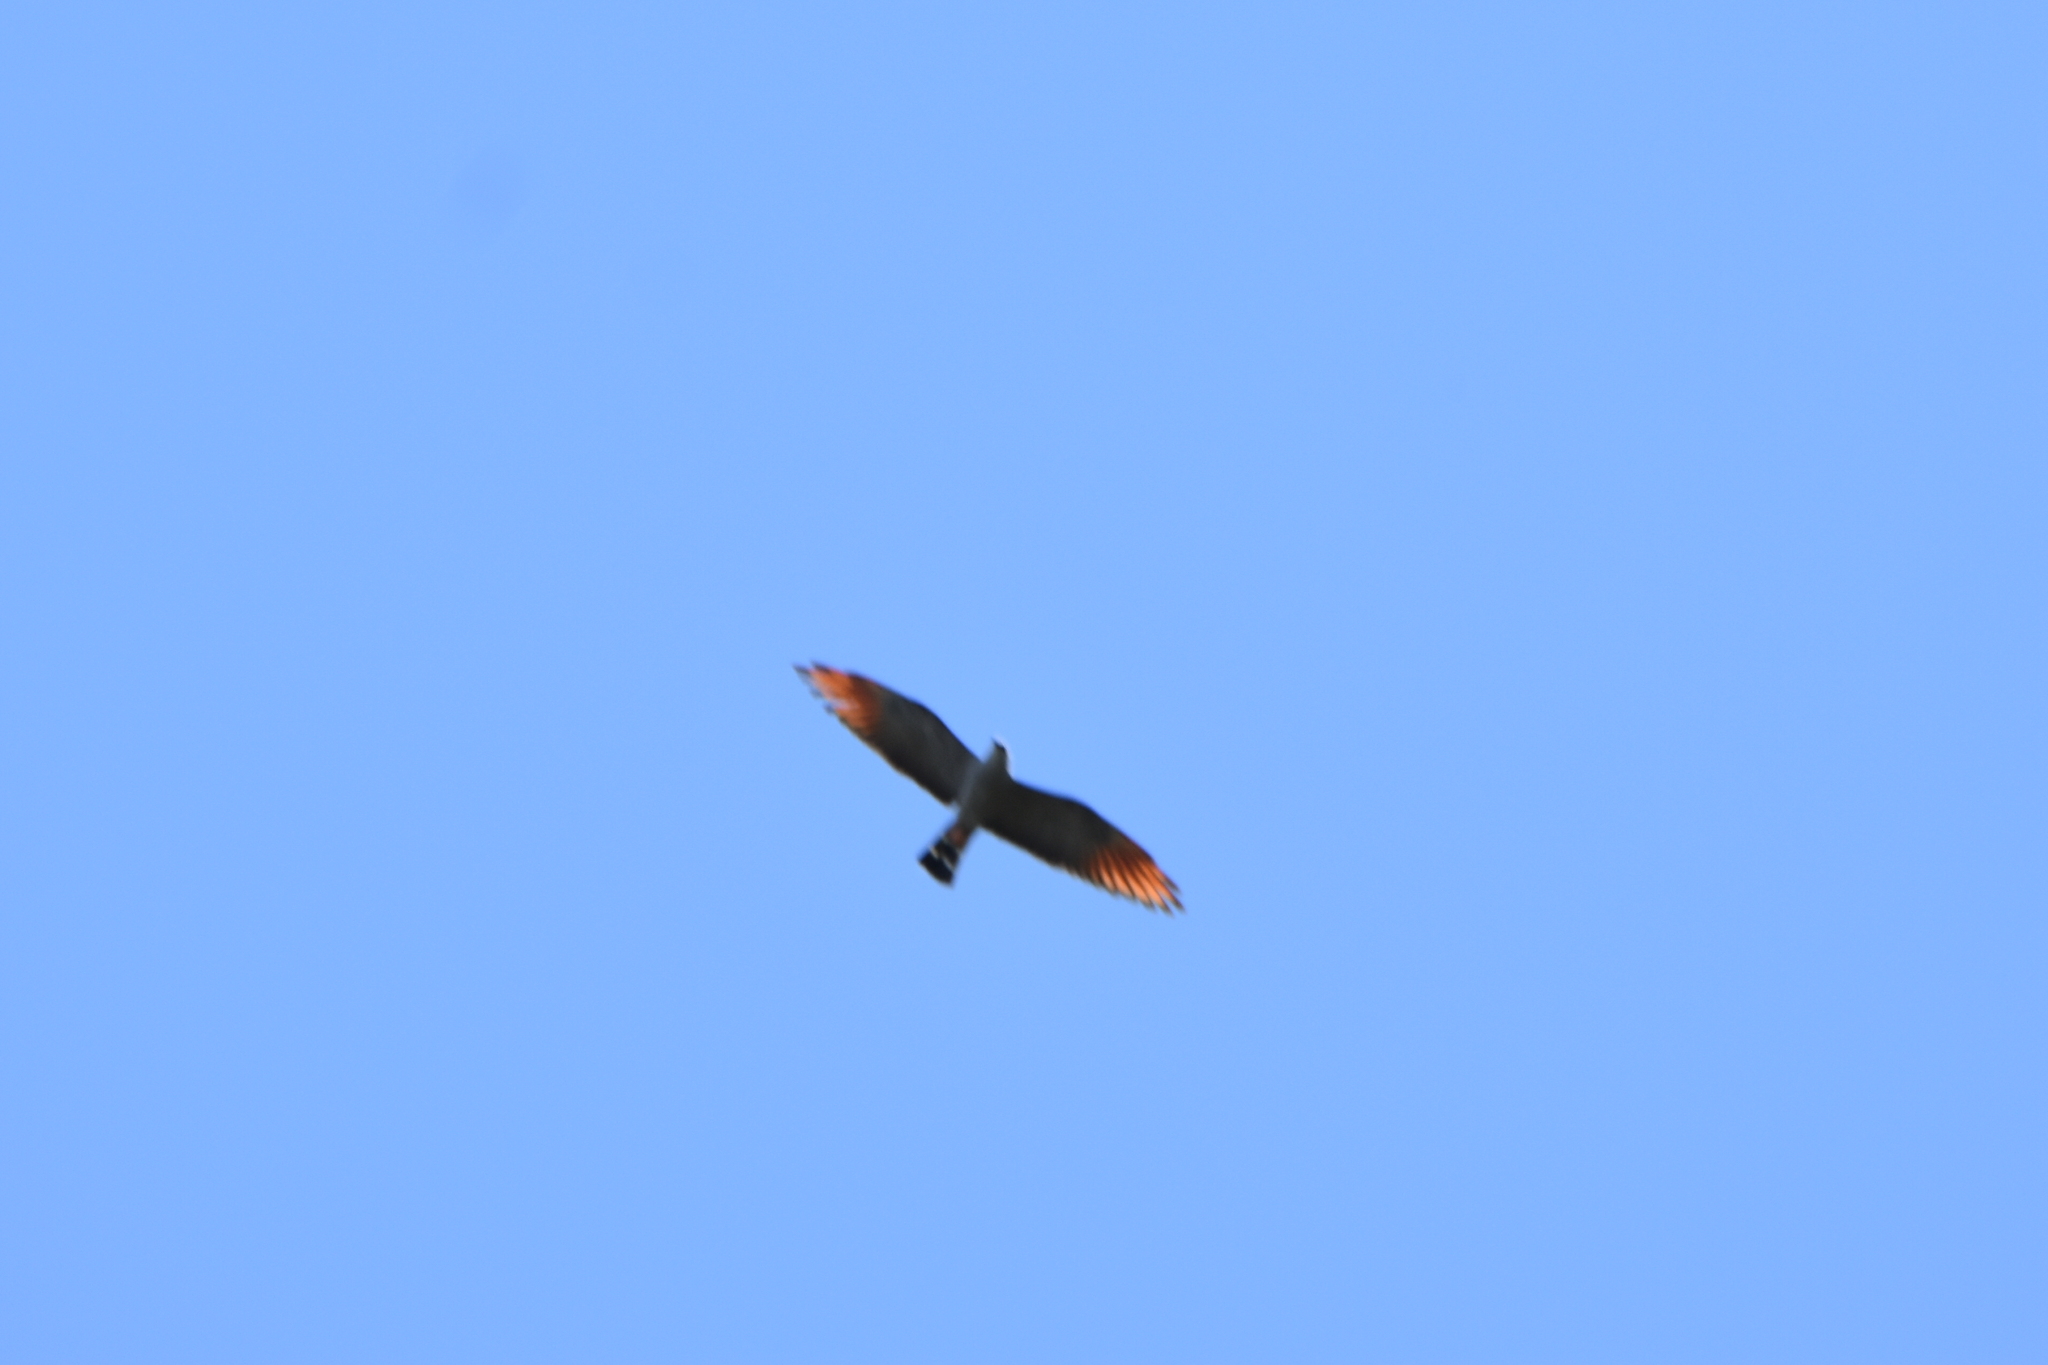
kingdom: Animalia
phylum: Chordata
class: Aves
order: Accipitriformes
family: Accipitridae
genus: Ictinia
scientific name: Ictinia plumbea
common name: Plumbeous kite
